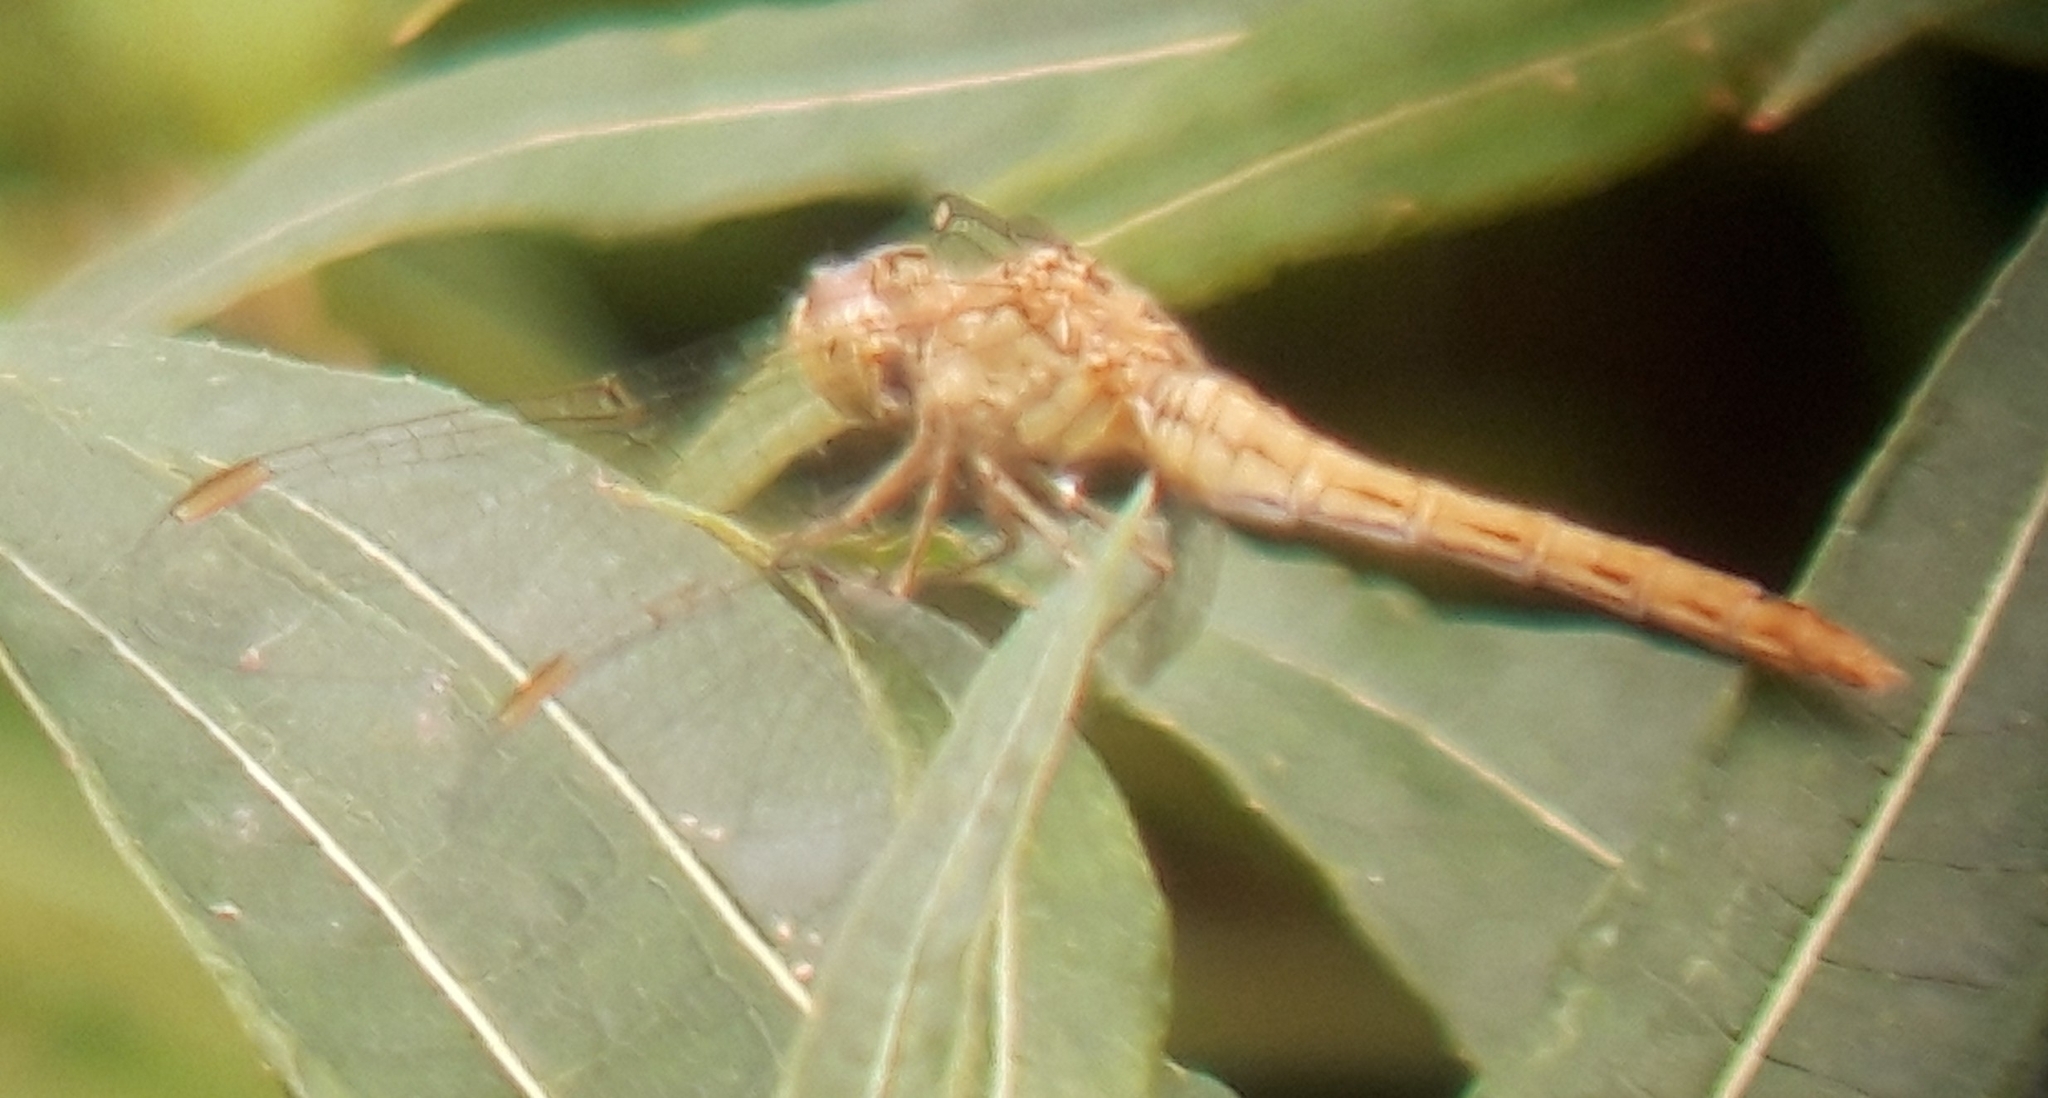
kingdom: Animalia
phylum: Arthropoda
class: Insecta
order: Odonata
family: Libellulidae
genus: Sympetrum
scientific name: Sympetrum meridionale
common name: Southern darter
